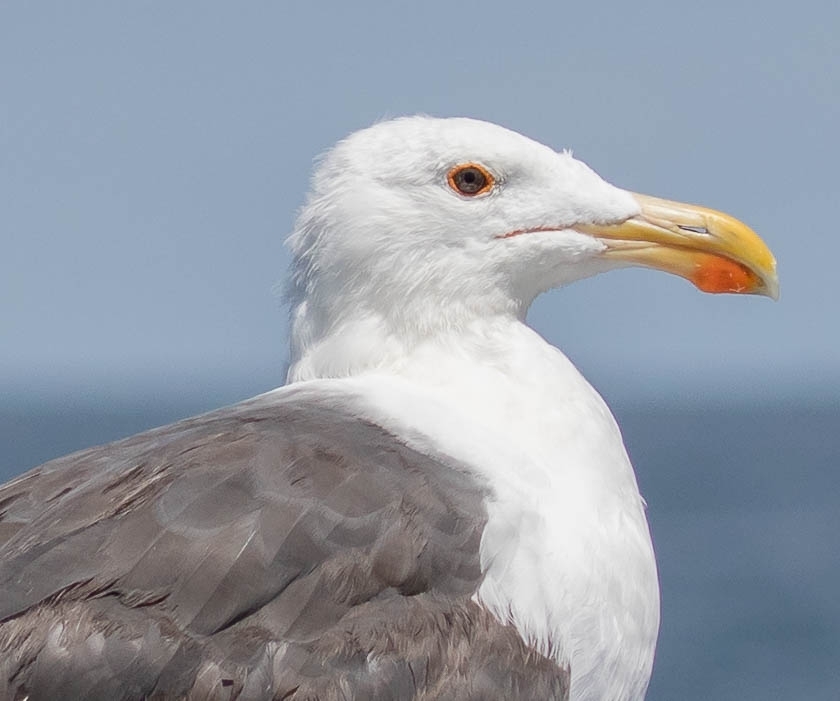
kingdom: Animalia
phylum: Chordata
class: Aves
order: Charadriiformes
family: Laridae
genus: Larus
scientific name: Larus marinus
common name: Great black-backed gull
